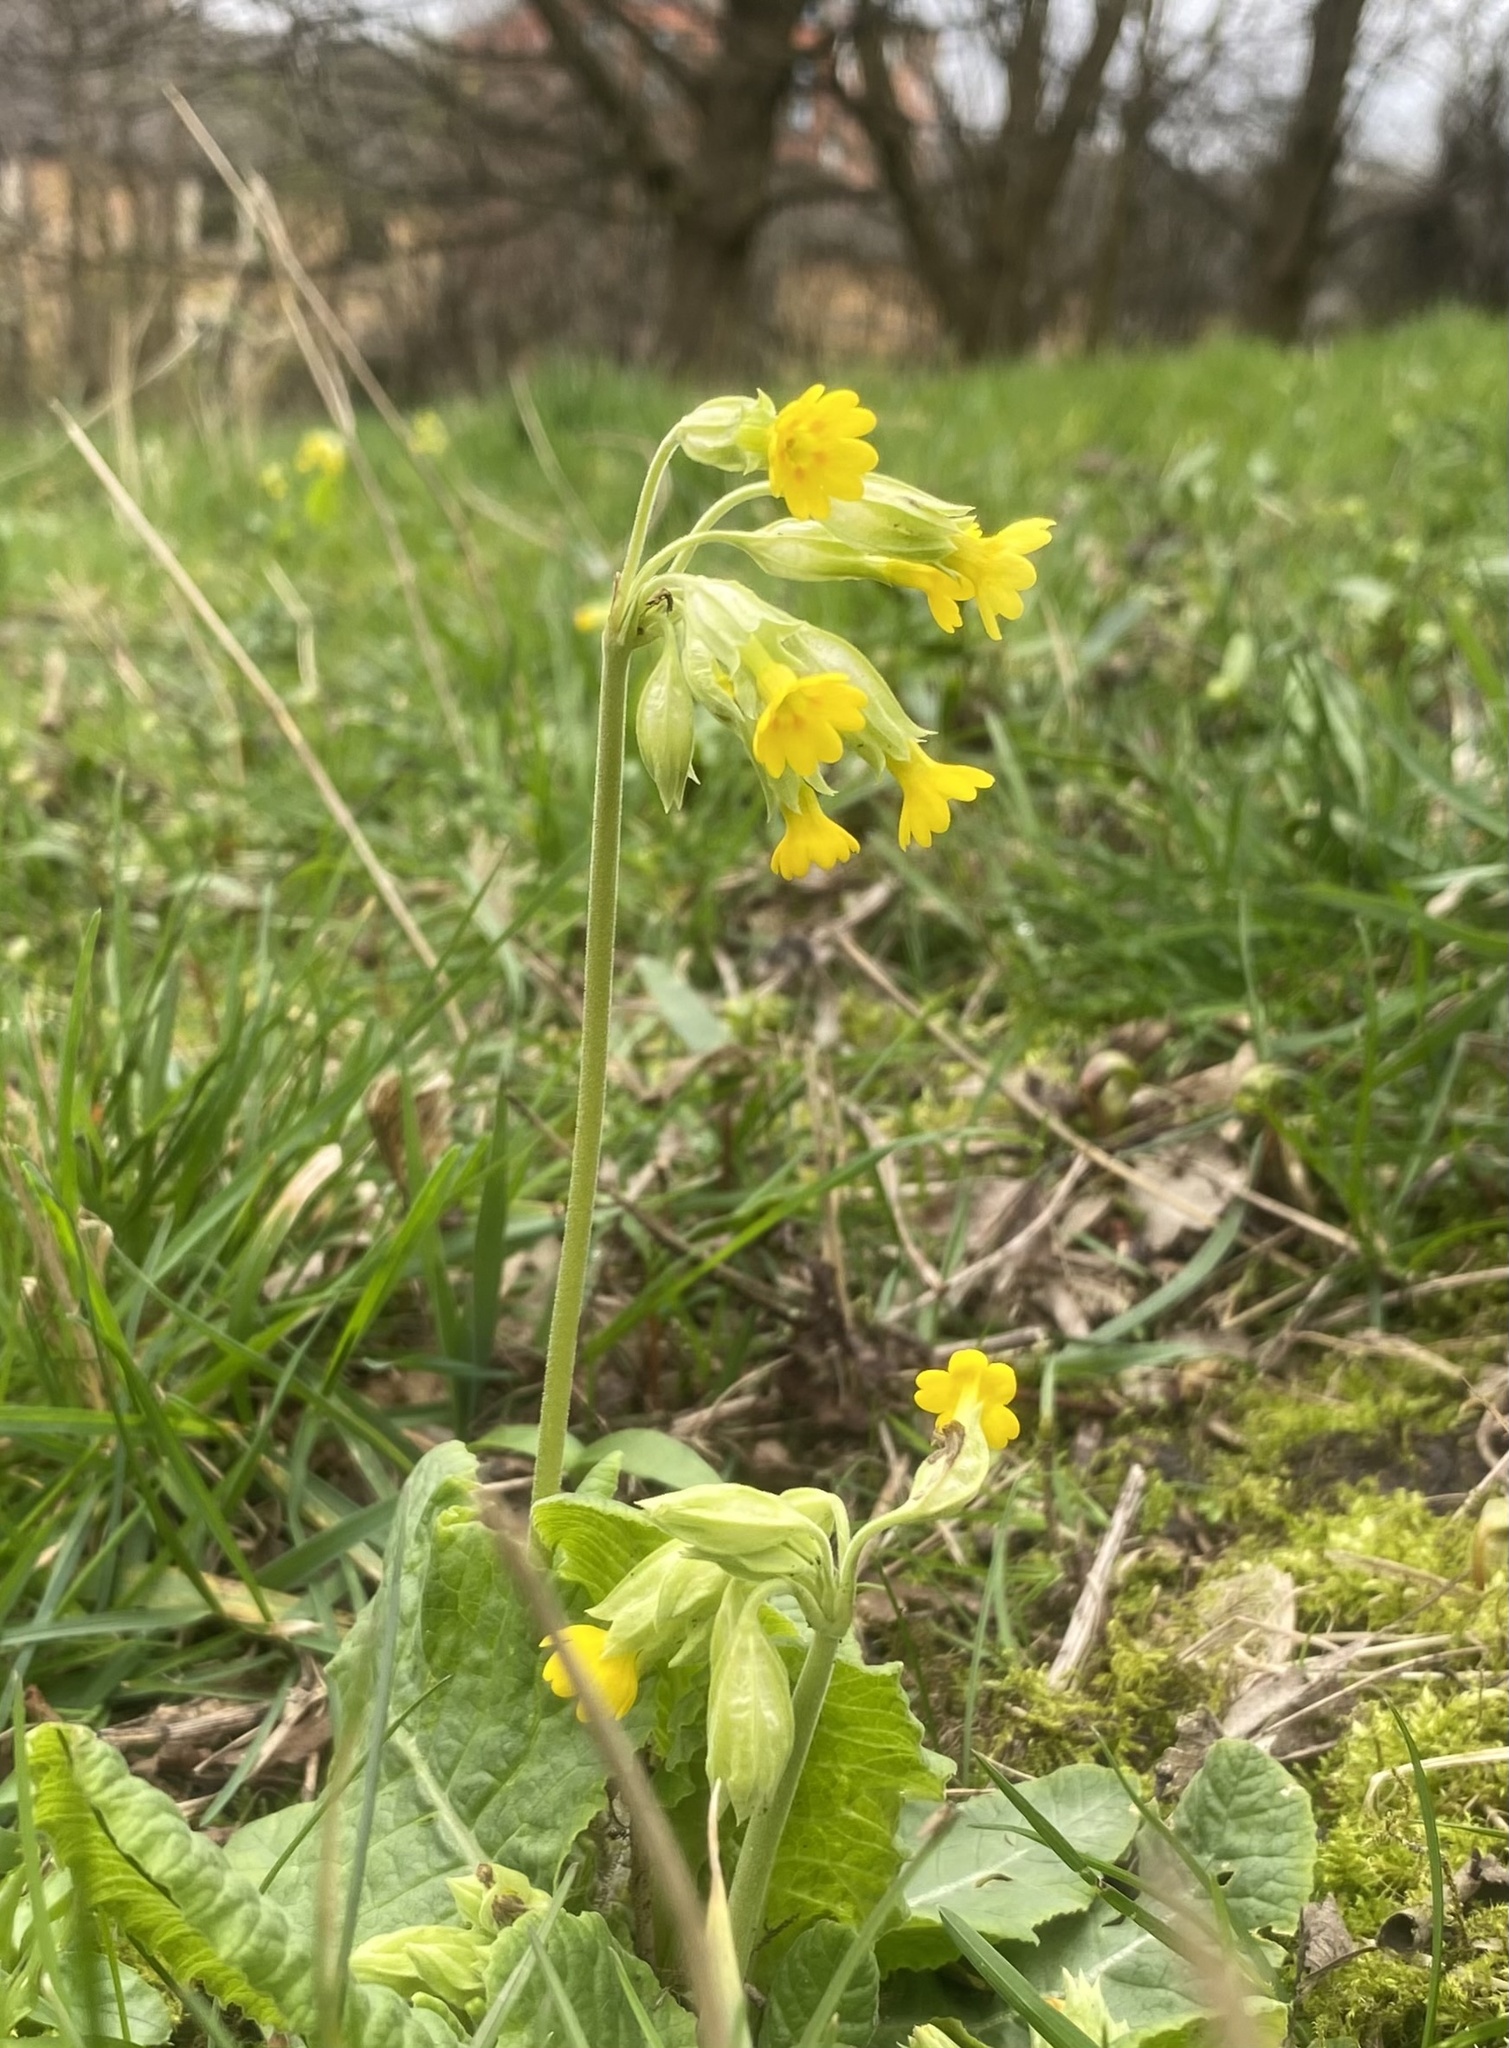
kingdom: Plantae
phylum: Tracheophyta
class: Magnoliopsida
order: Ericales
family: Primulaceae
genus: Primula
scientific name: Primula veris
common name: Cowslip
